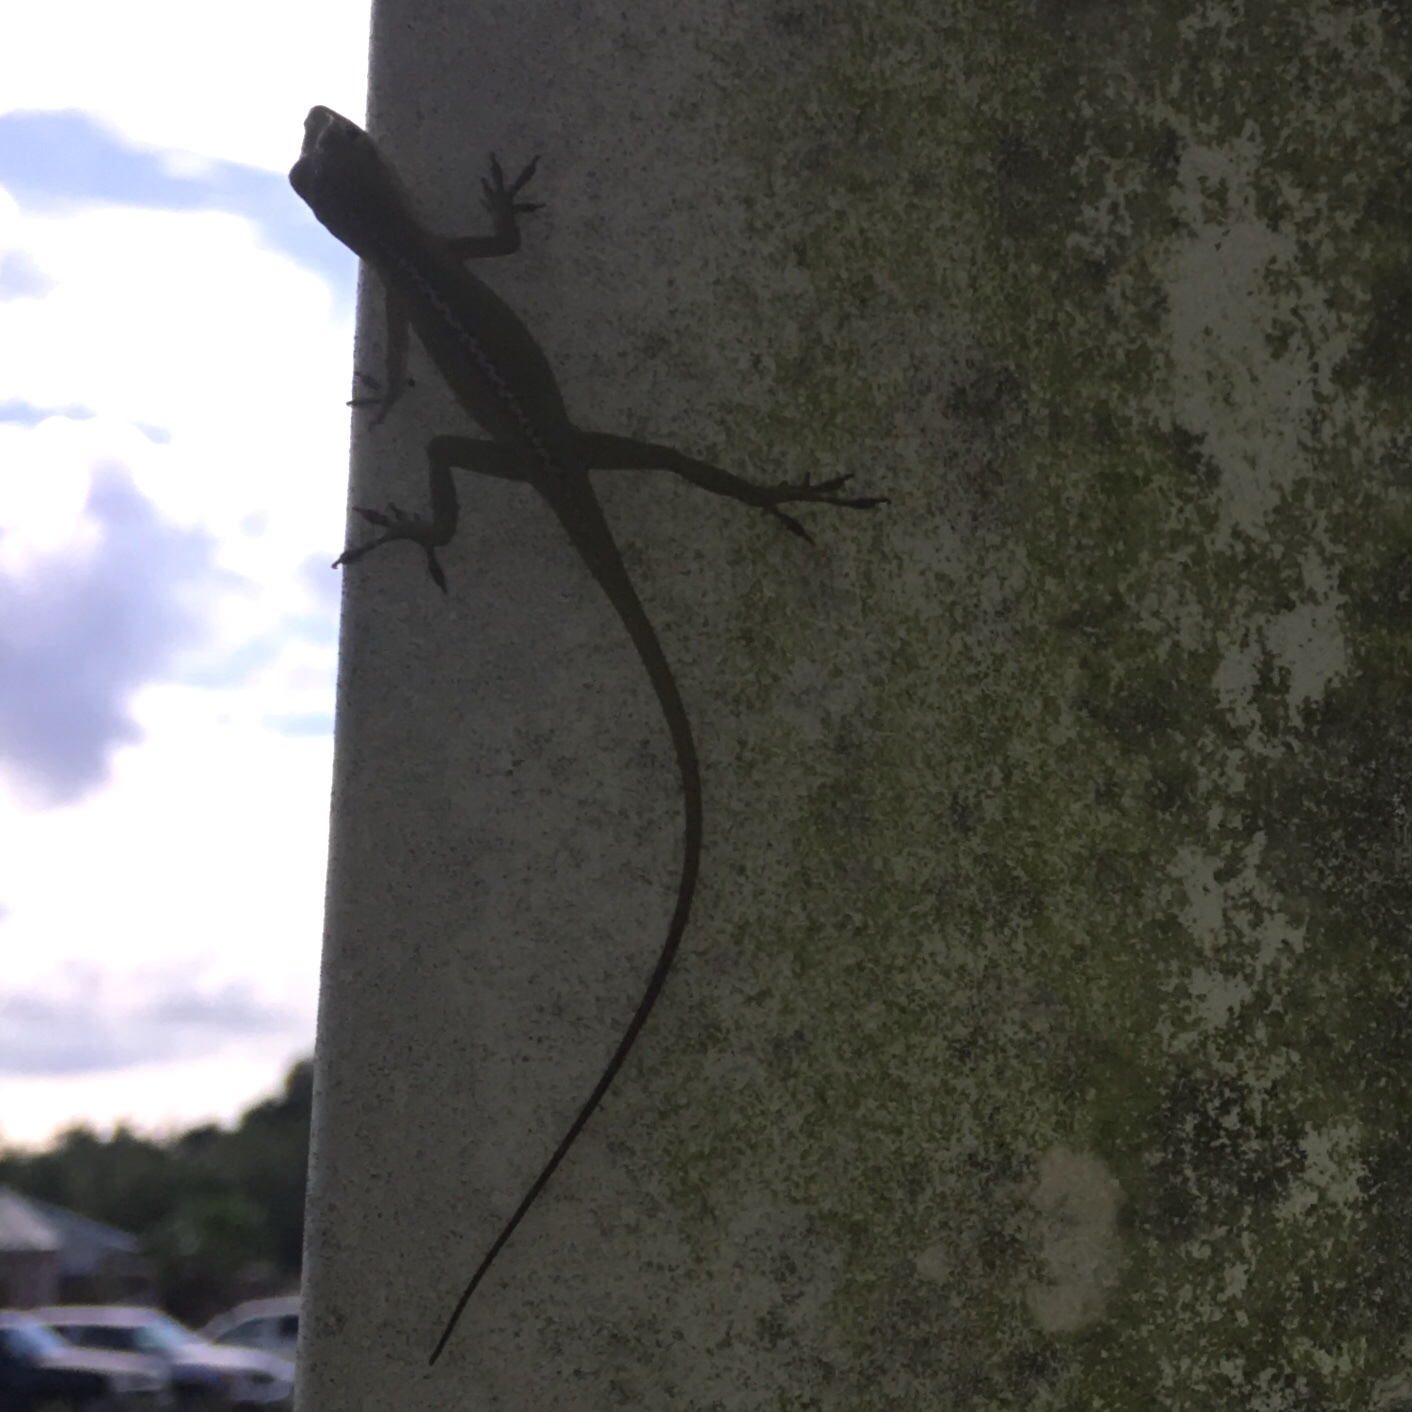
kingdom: Animalia
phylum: Chordata
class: Squamata
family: Dactyloidae
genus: Anolis
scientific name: Anolis carolinensis
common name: Green anole
